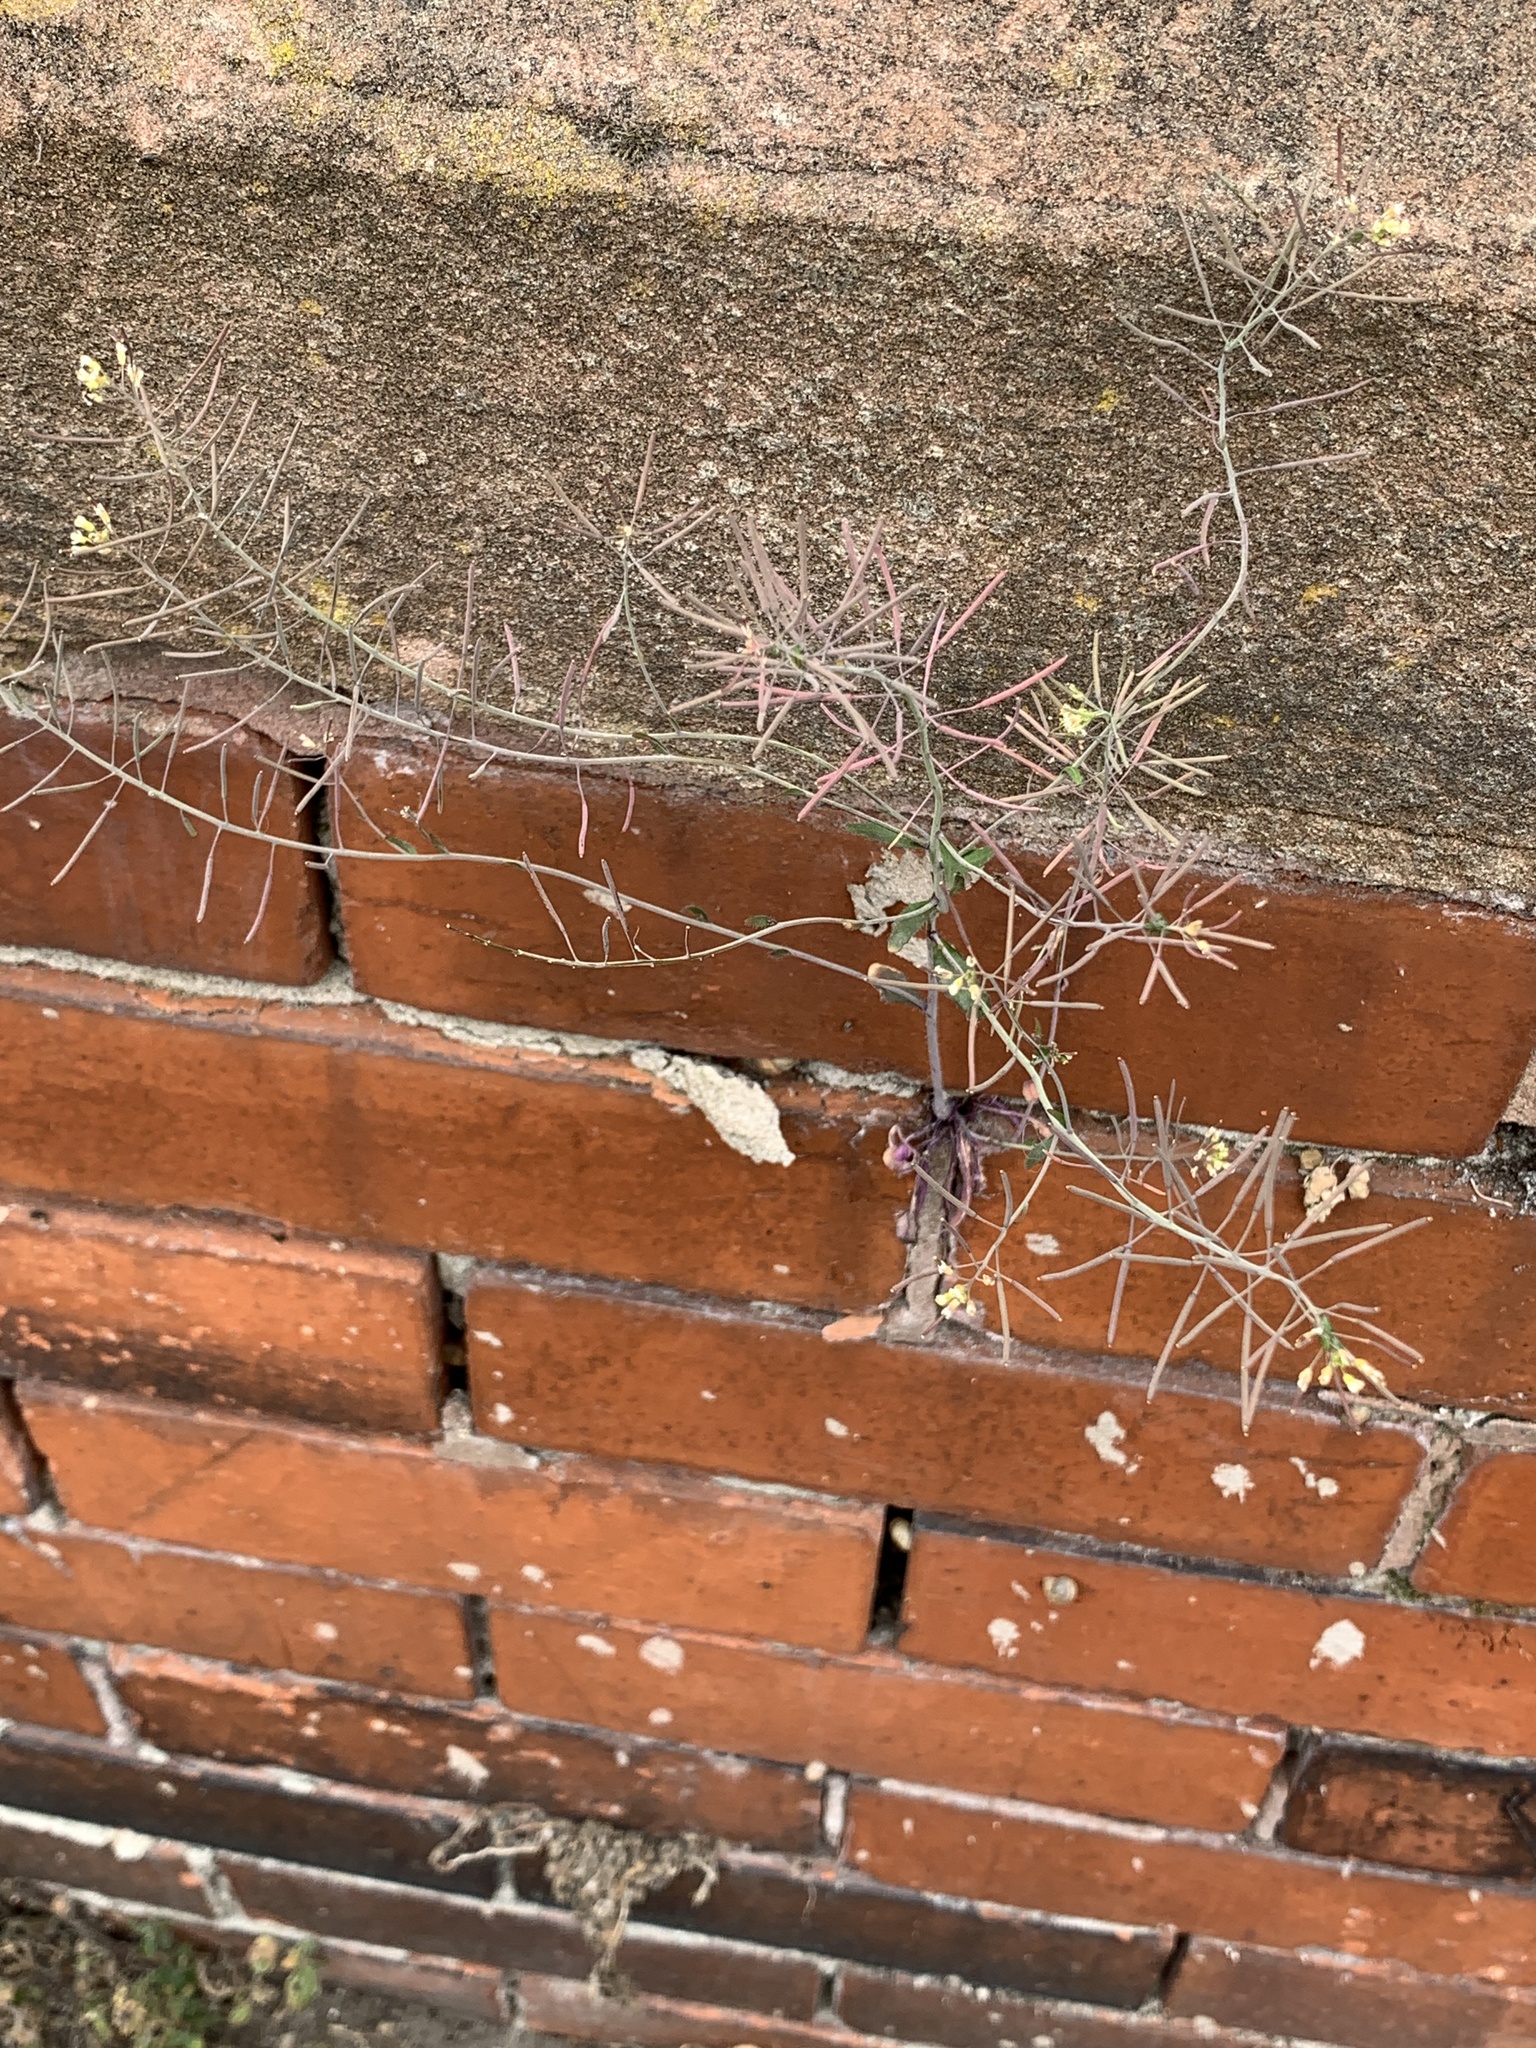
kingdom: Plantae
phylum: Tracheophyta
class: Magnoliopsida
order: Brassicales
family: Brassicaceae
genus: Arabidopsis
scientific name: Arabidopsis thaliana
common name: Thale cress
